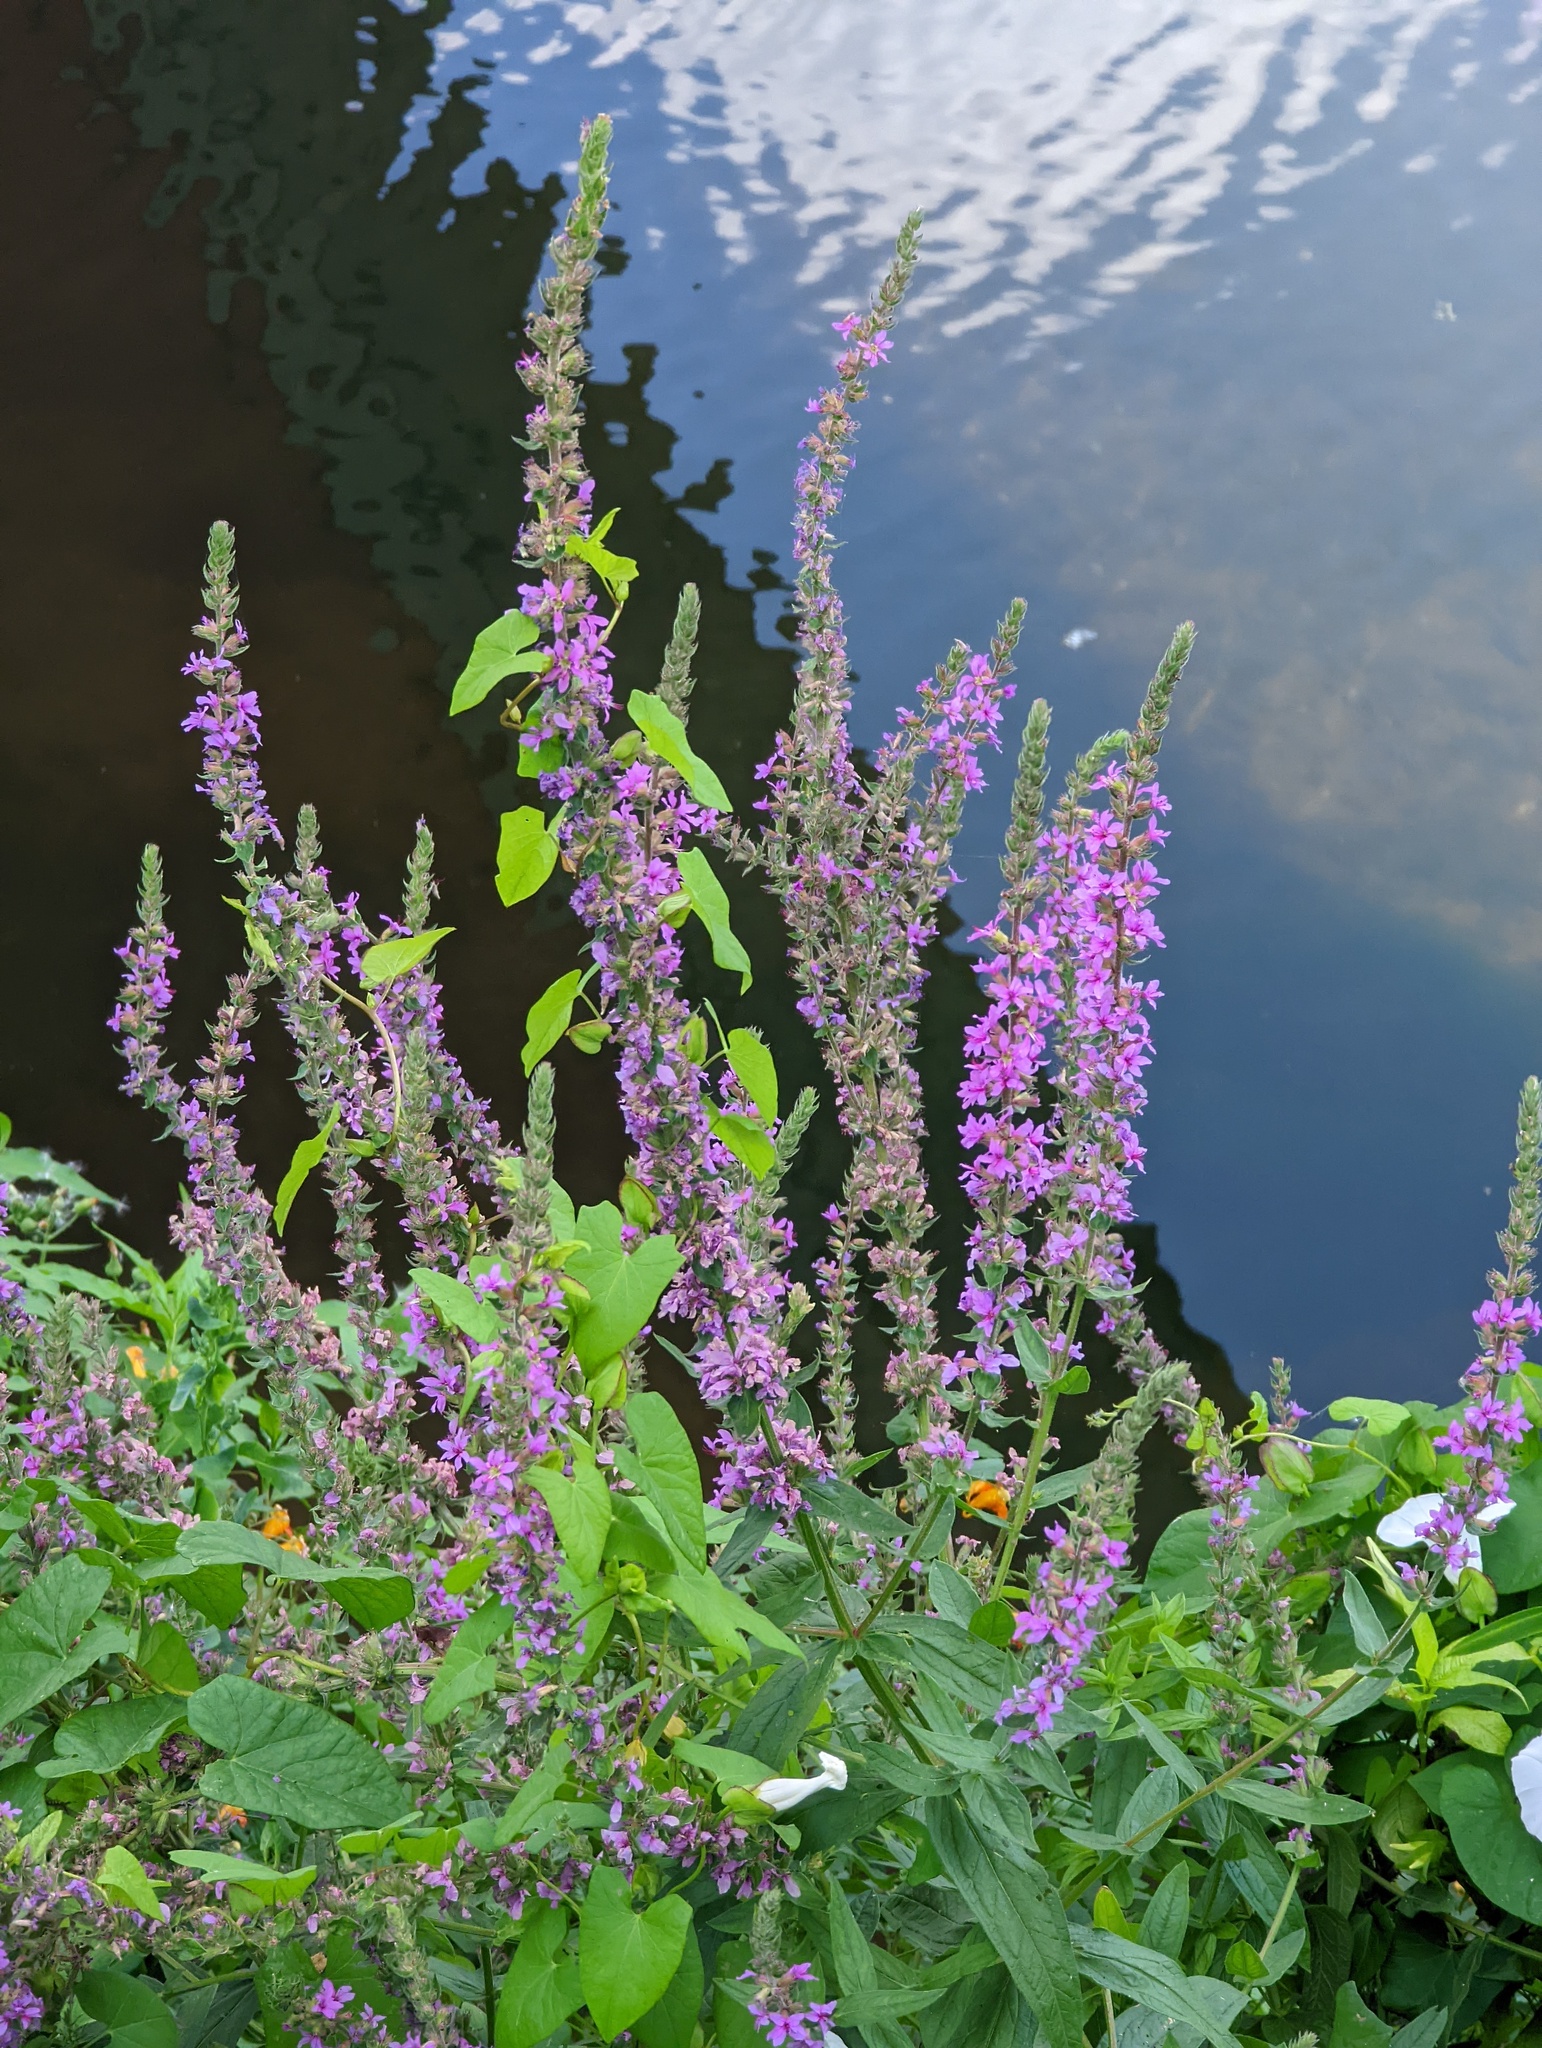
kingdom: Plantae
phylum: Tracheophyta
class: Magnoliopsida
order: Myrtales
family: Lythraceae
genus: Lythrum
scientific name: Lythrum salicaria
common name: Purple loosestrife
